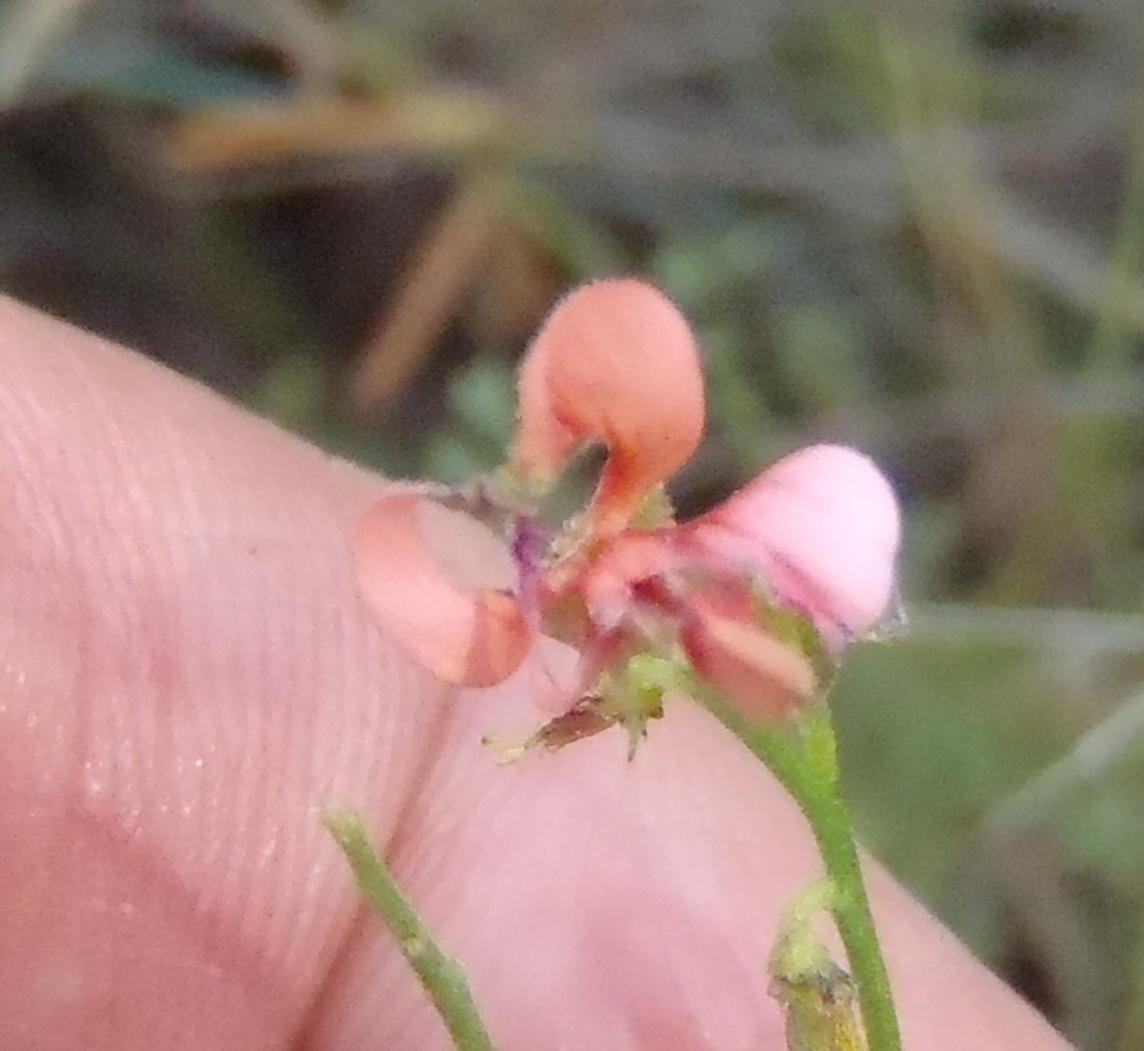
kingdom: Plantae
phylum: Tracheophyta
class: Magnoliopsida
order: Fabales
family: Fabaceae
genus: Indigofera
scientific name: Indigofera heterotricha
